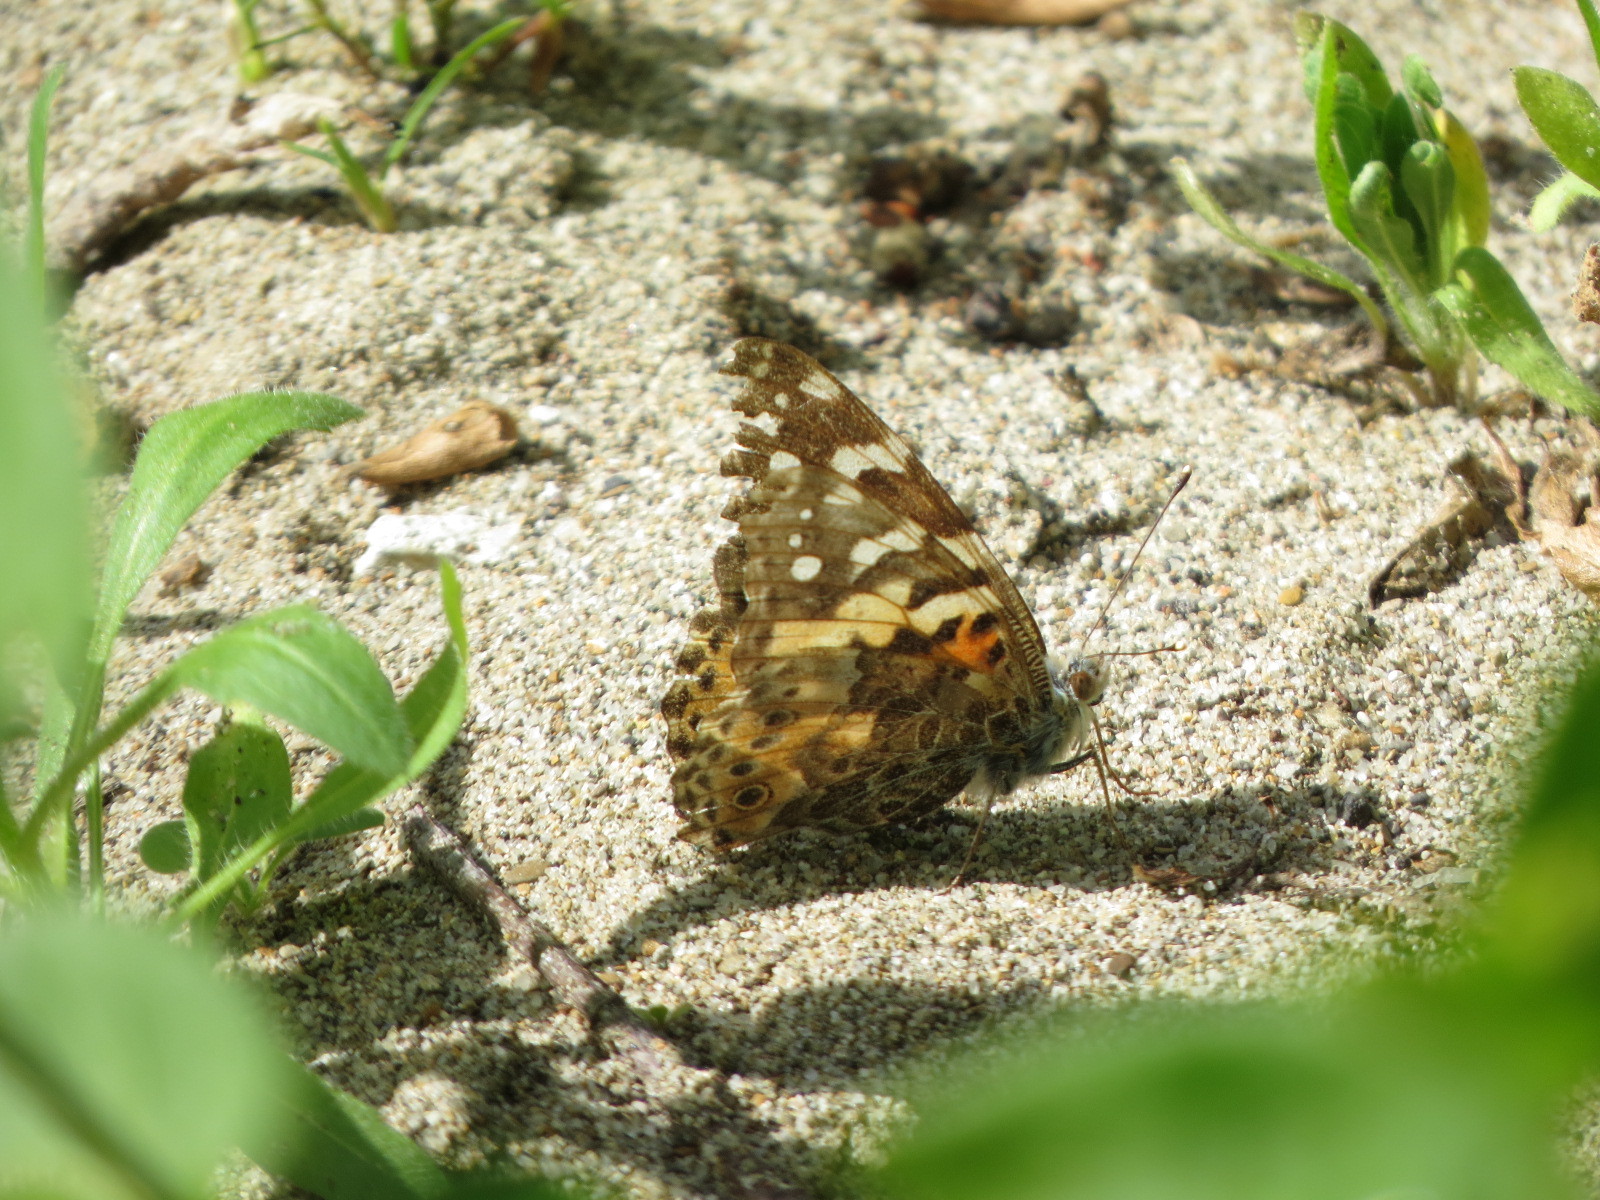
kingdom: Animalia
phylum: Arthropoda
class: Insecta
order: Lepidoptera
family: Nymphalidae
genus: Vanessa
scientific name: Vanessa cardui
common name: Painted lady
